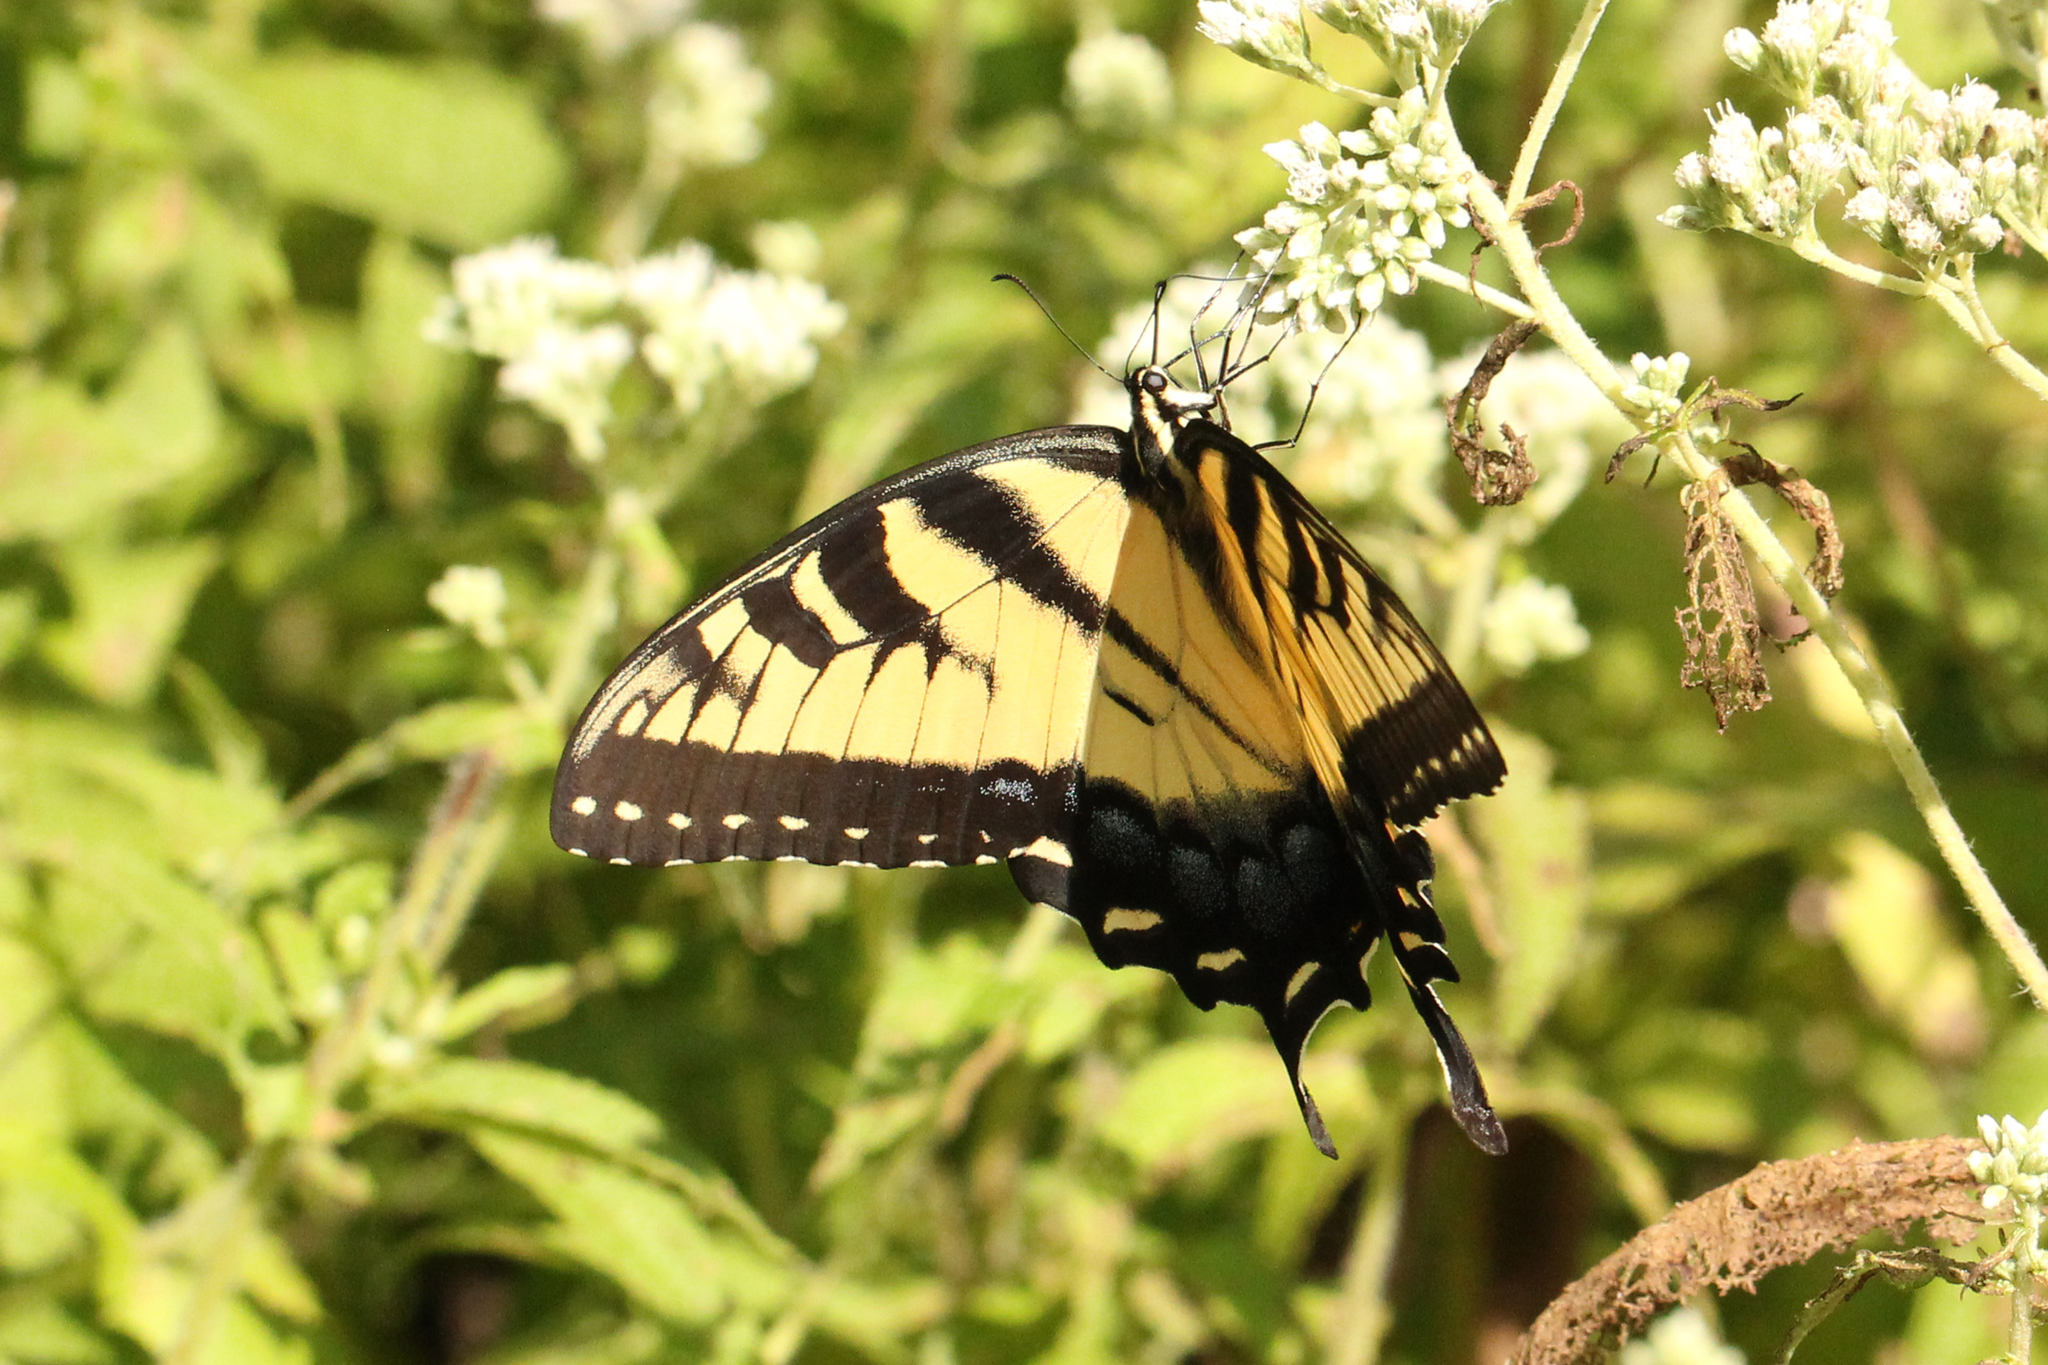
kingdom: Animalia
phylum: Arthropoda
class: Insecta
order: Lepidoptera
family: Papilionidae
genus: Papilio
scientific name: Papilio glaucus
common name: Tiger swallowtail
